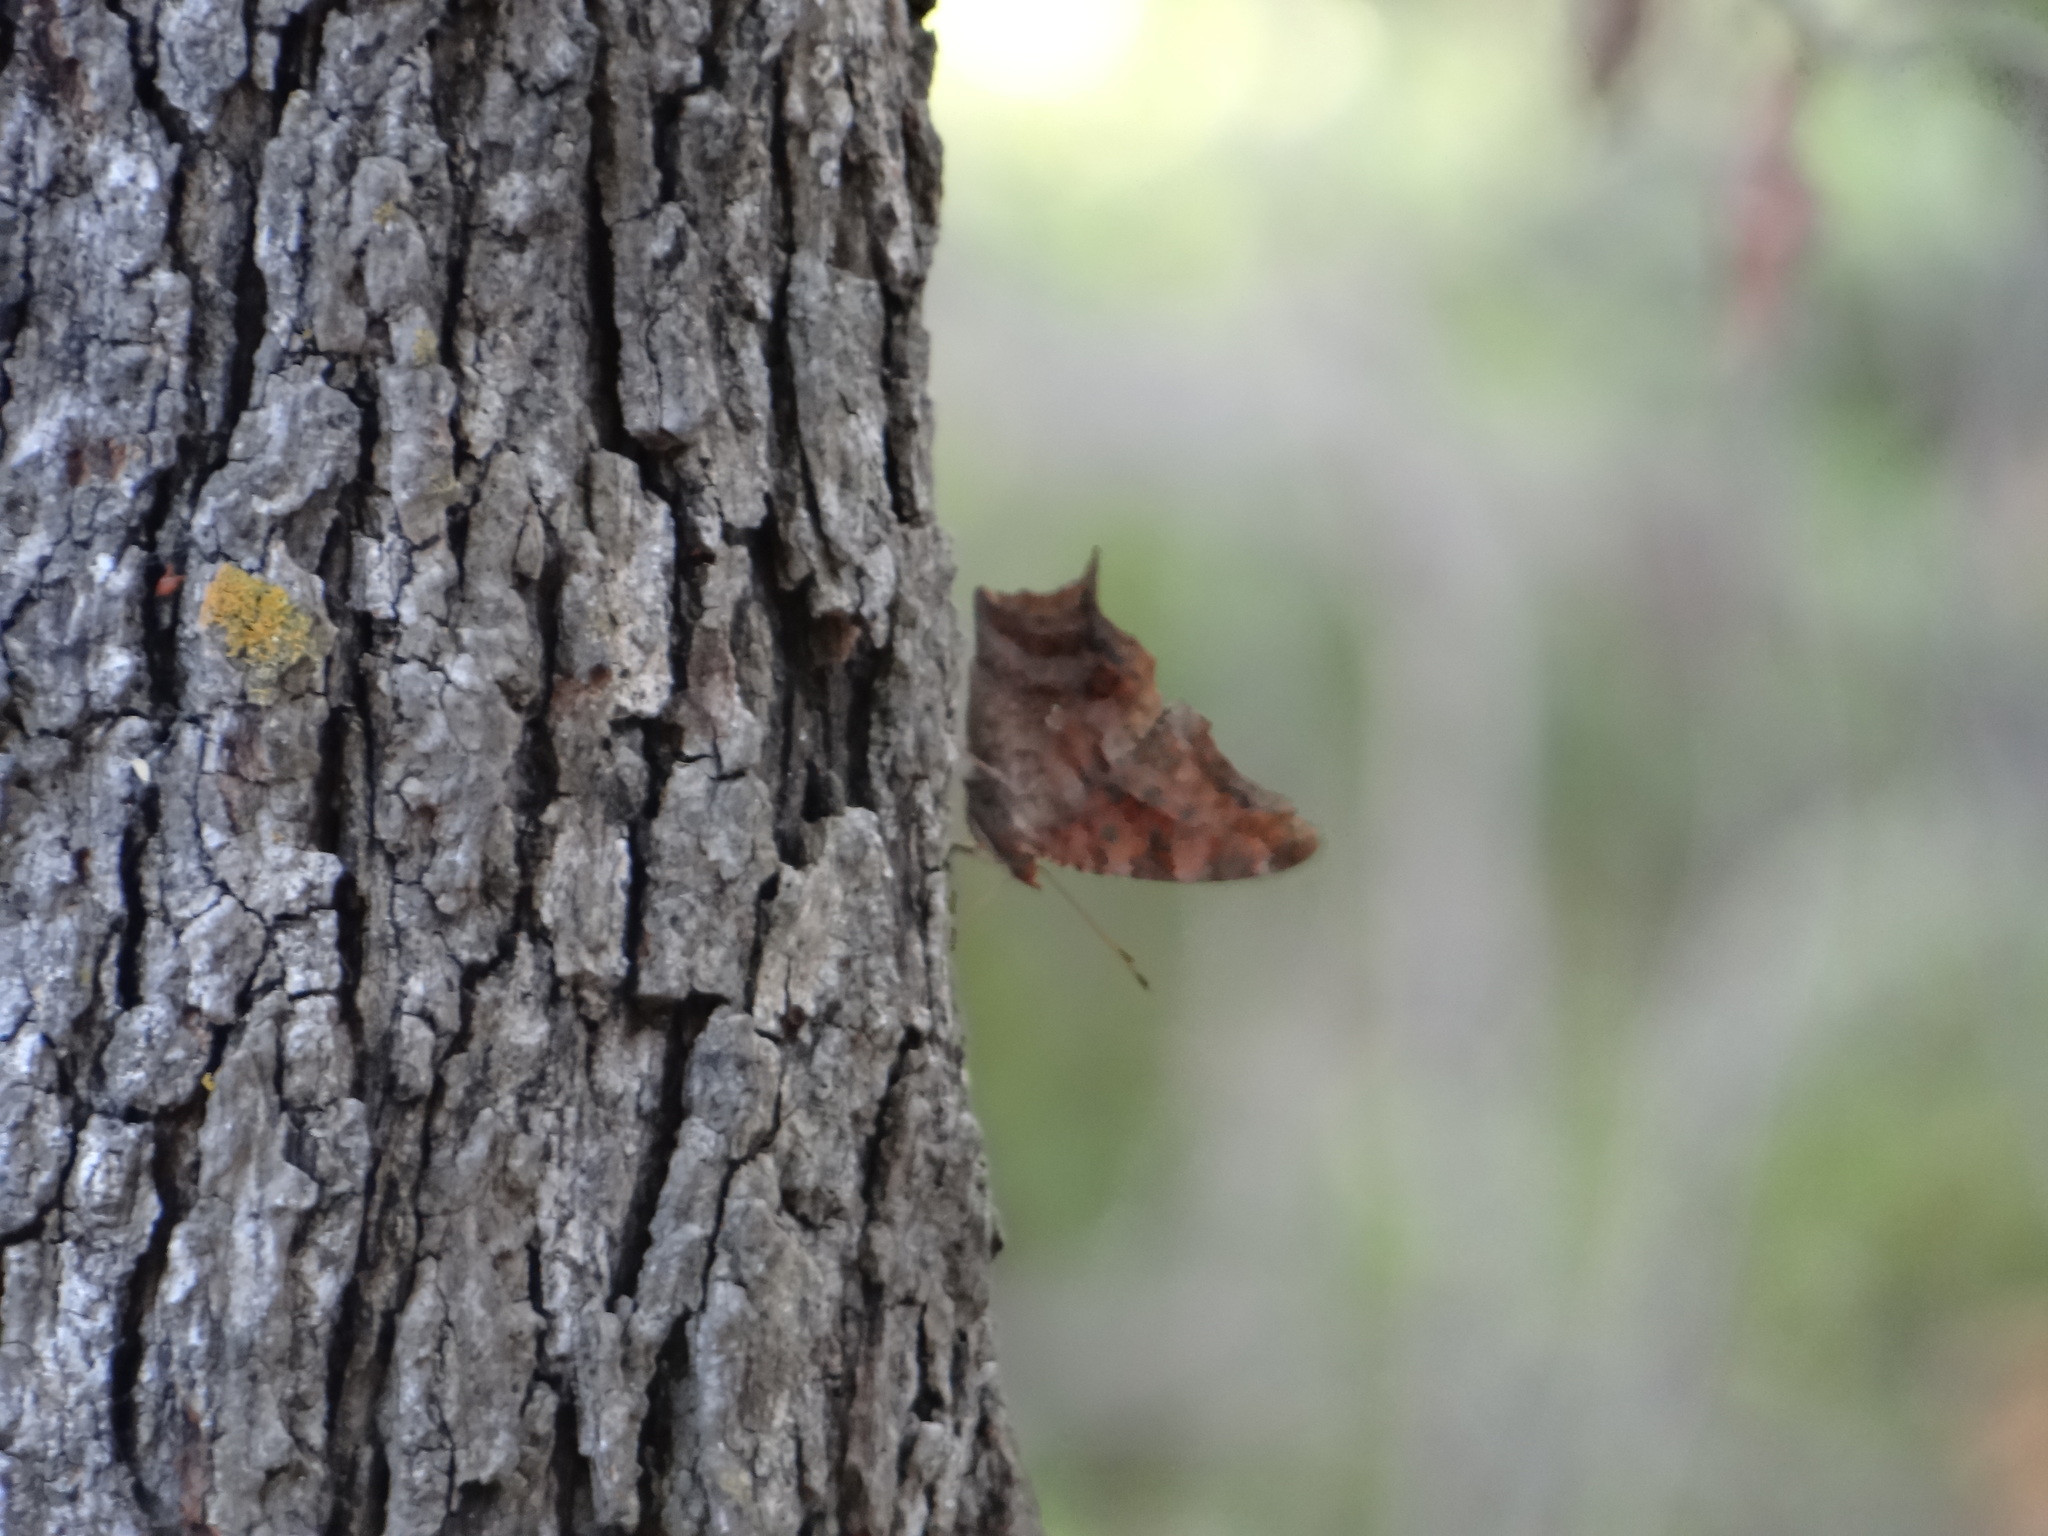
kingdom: Animalia
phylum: Arthropoda
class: Insecta
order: Lepidoptera
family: Nymphalidae
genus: Polygonia
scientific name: Polygonia interrogationis
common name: Question mark
